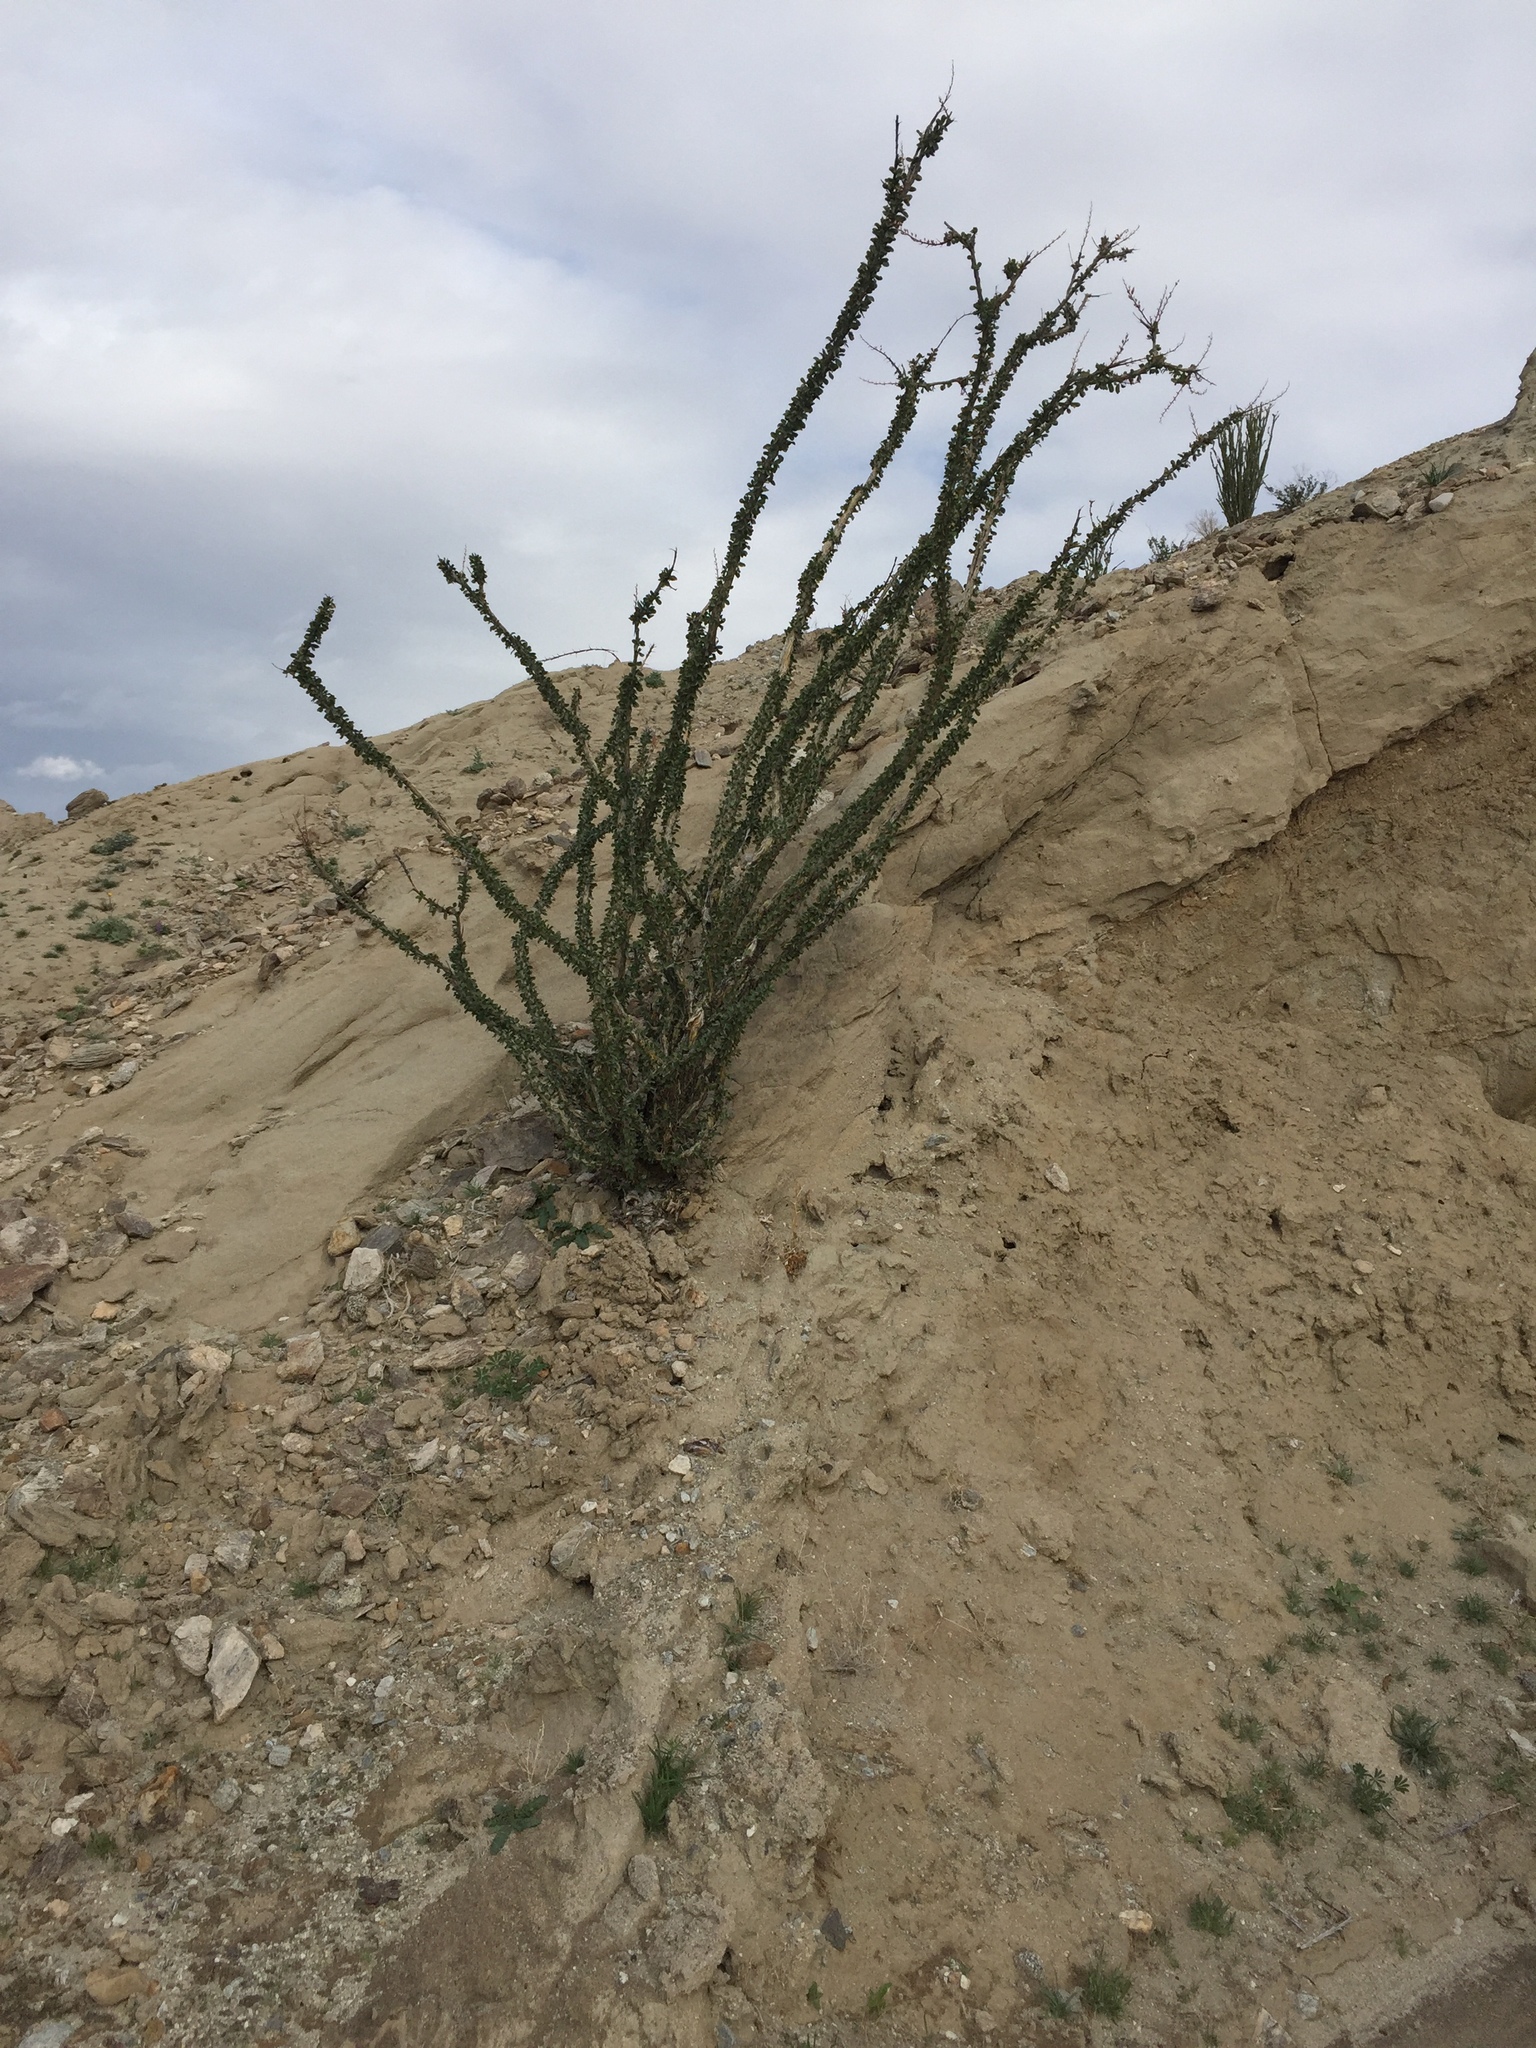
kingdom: Plantae
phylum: Tracheophyta
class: Magnoliopsida
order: Ericales
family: Fouquieriaceae
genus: Fouquieria
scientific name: Fouquieria splendens
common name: Vine-cactus
